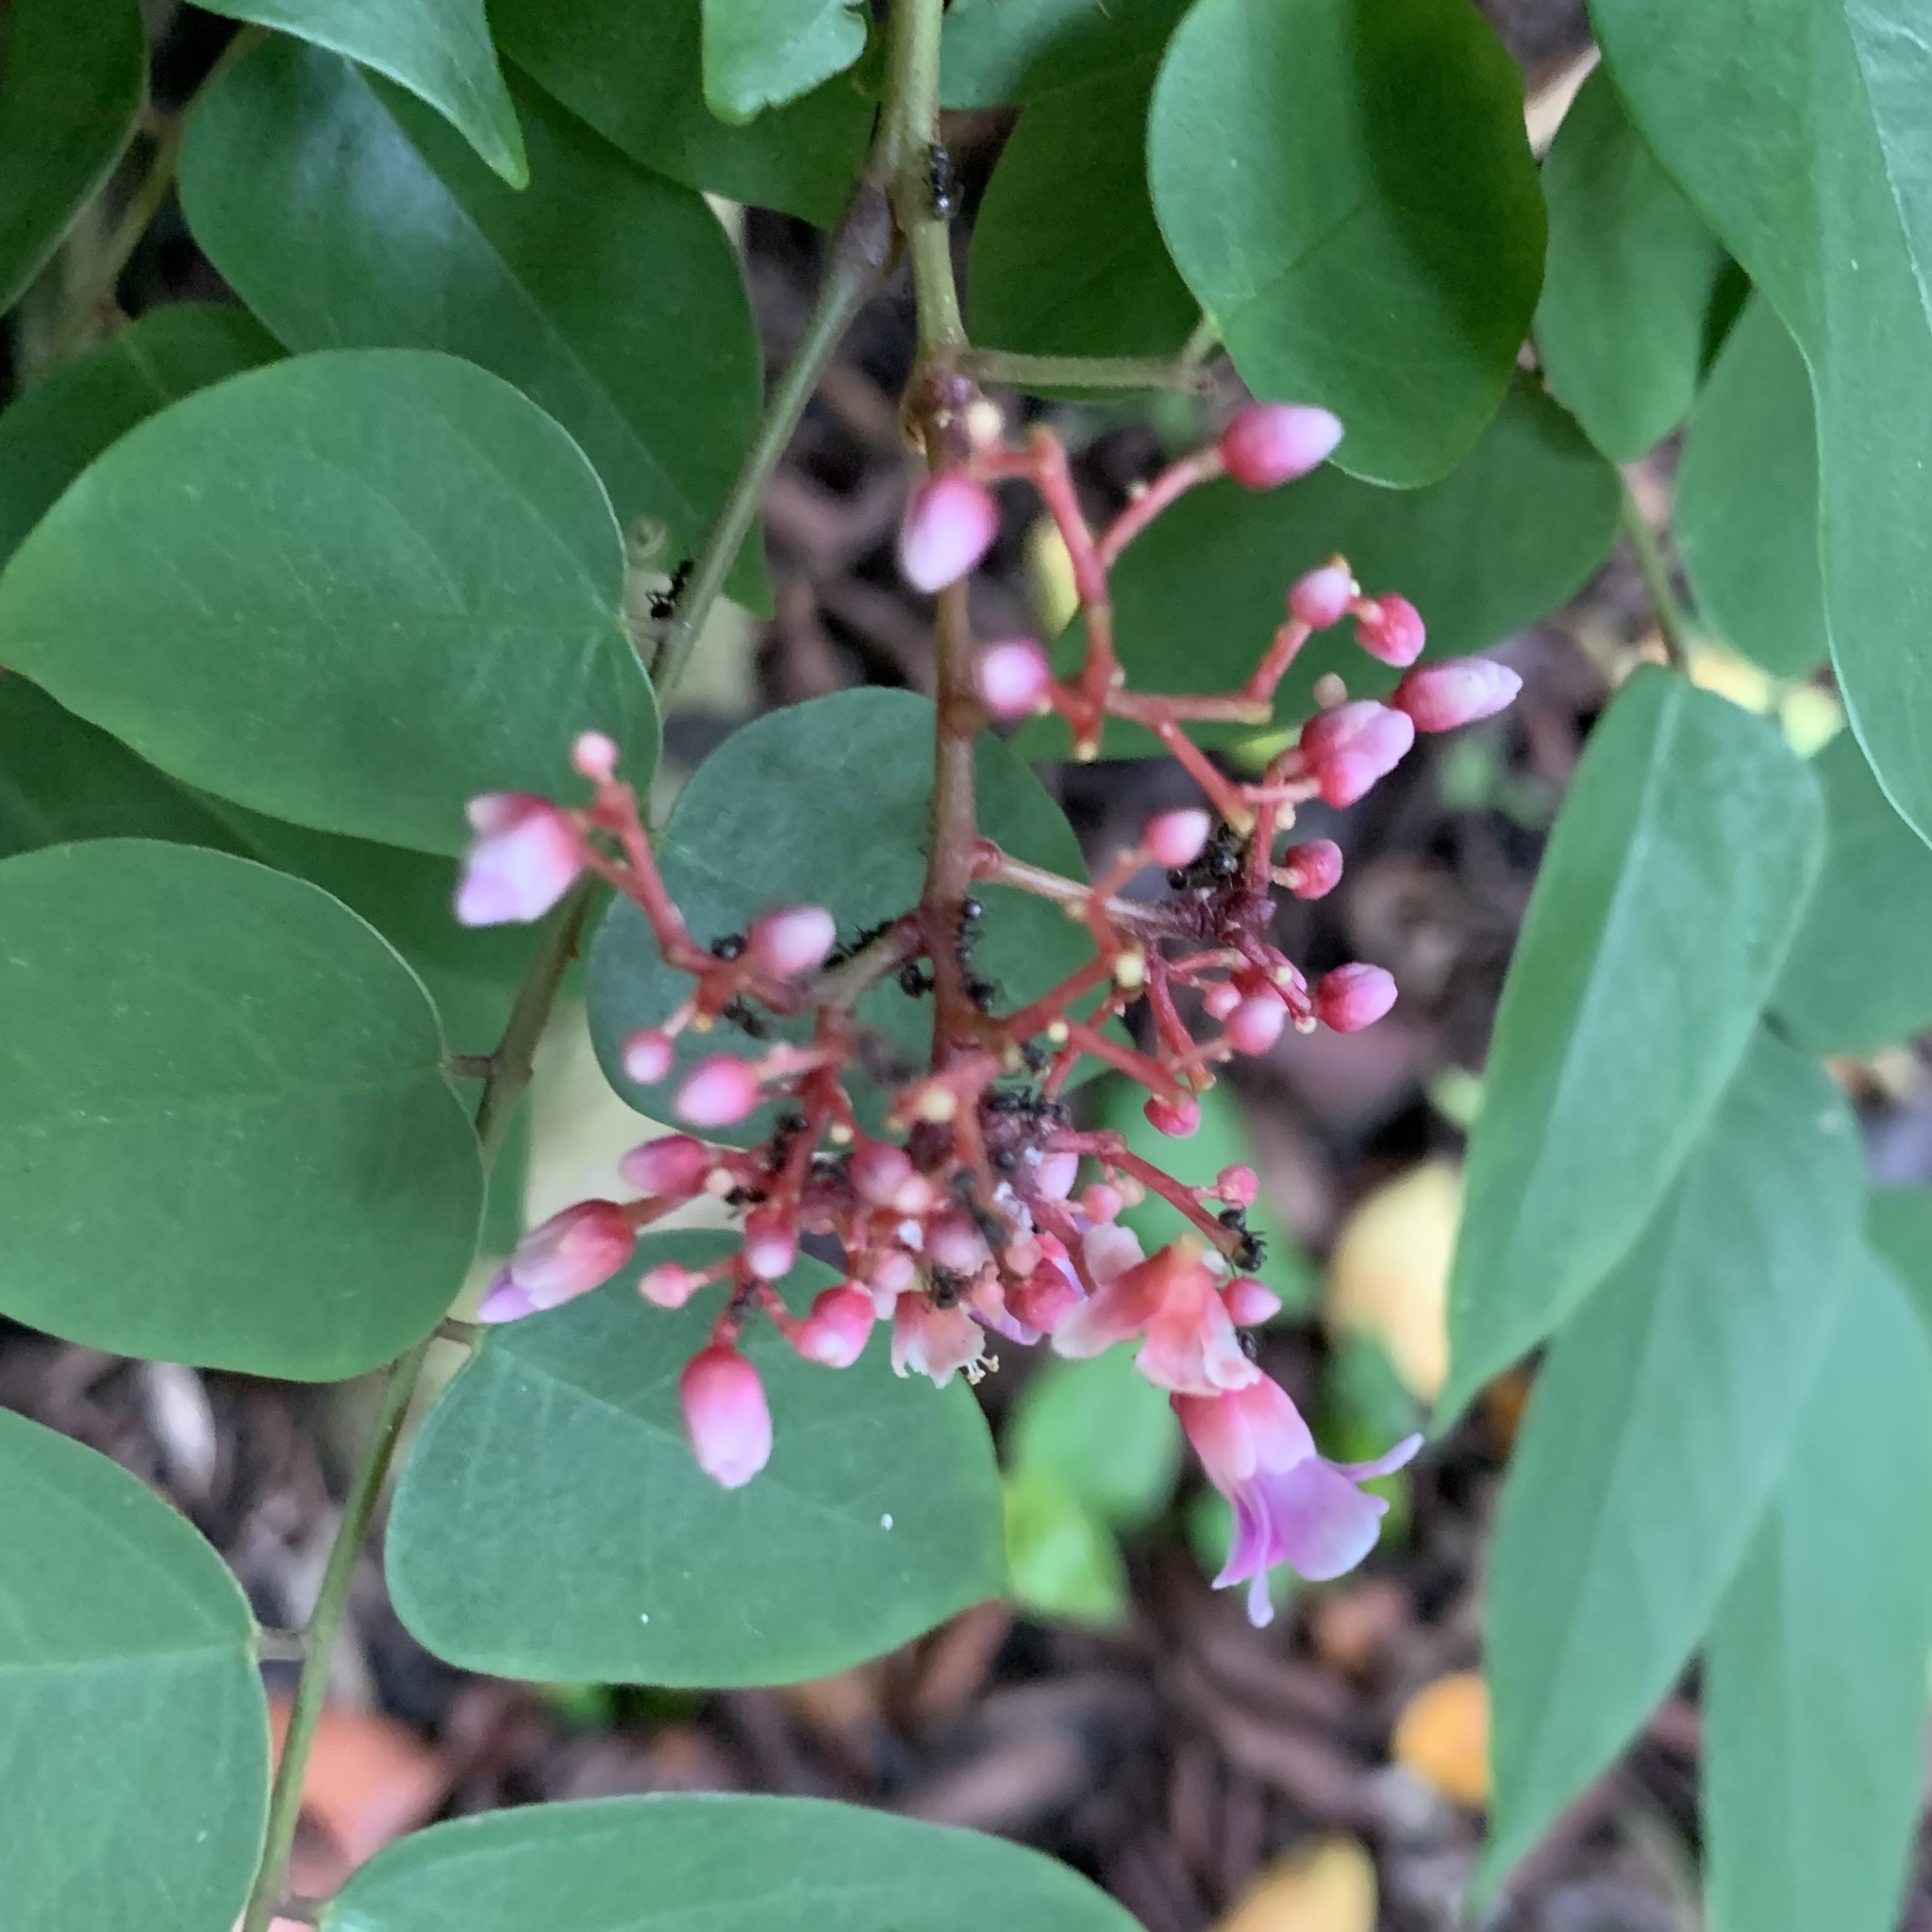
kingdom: Plantae
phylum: Tracheophyta
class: Magnoliopsida
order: Oxalidales
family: Oxalidaceae
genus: Averrhoa
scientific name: Averrhoa carambola
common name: Blimbing
